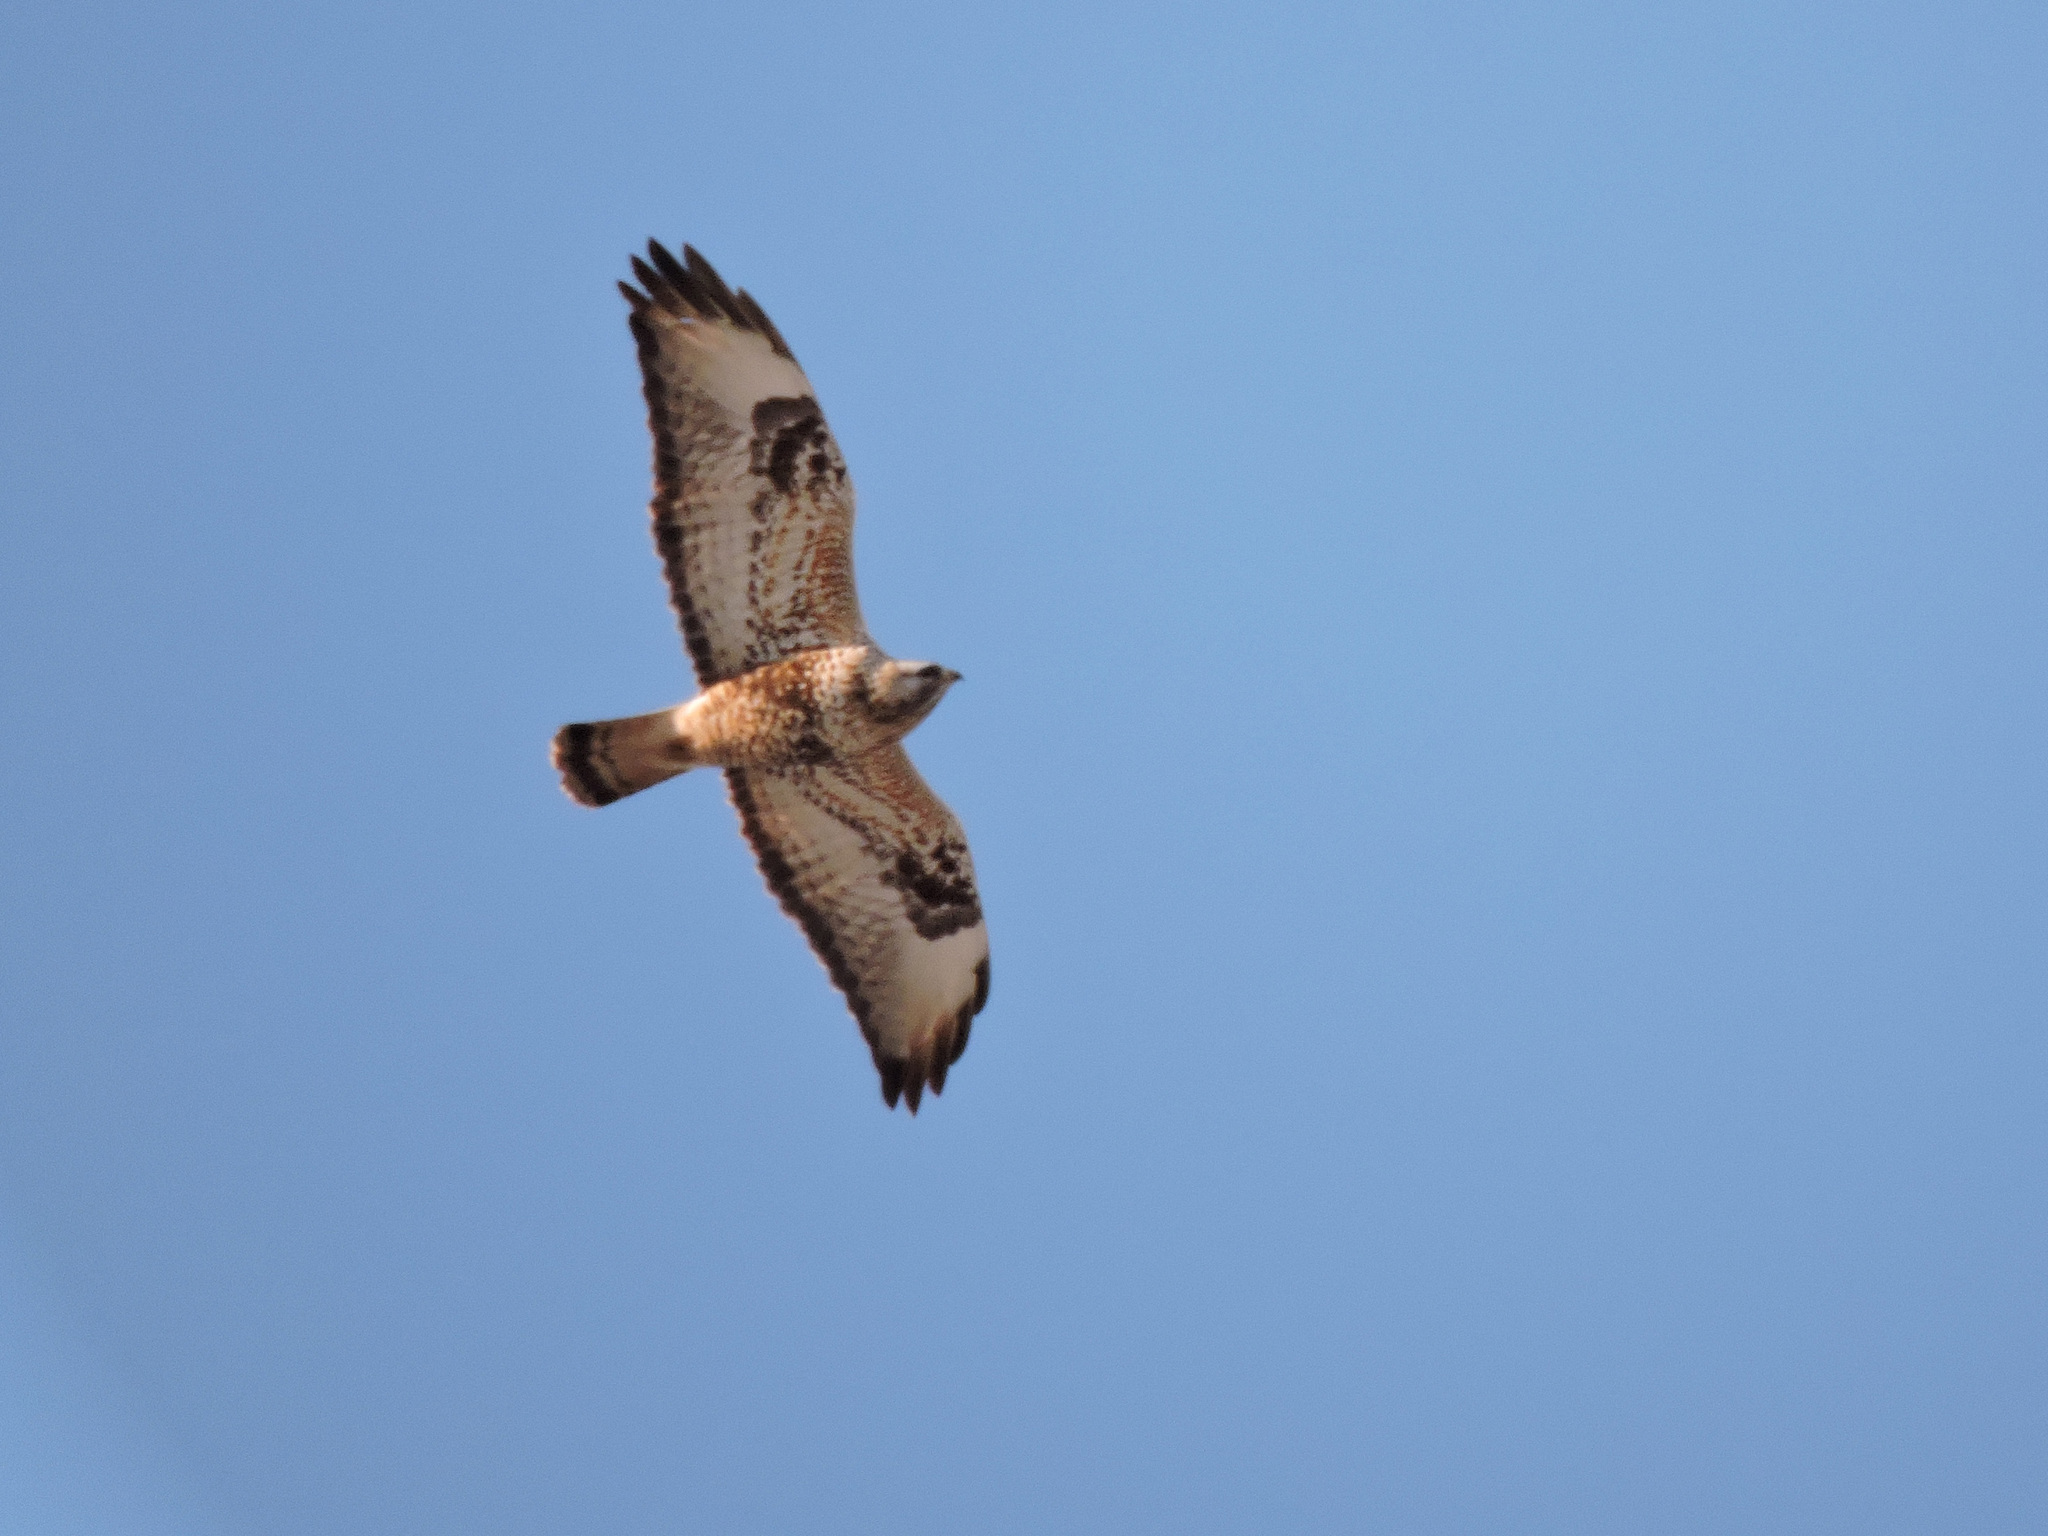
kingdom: Animalia
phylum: Chordata
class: Aves
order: Accipitriformes
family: Accipitridae
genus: Buteo
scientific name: Buteo lagopus
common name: Rough-legged buzzard
